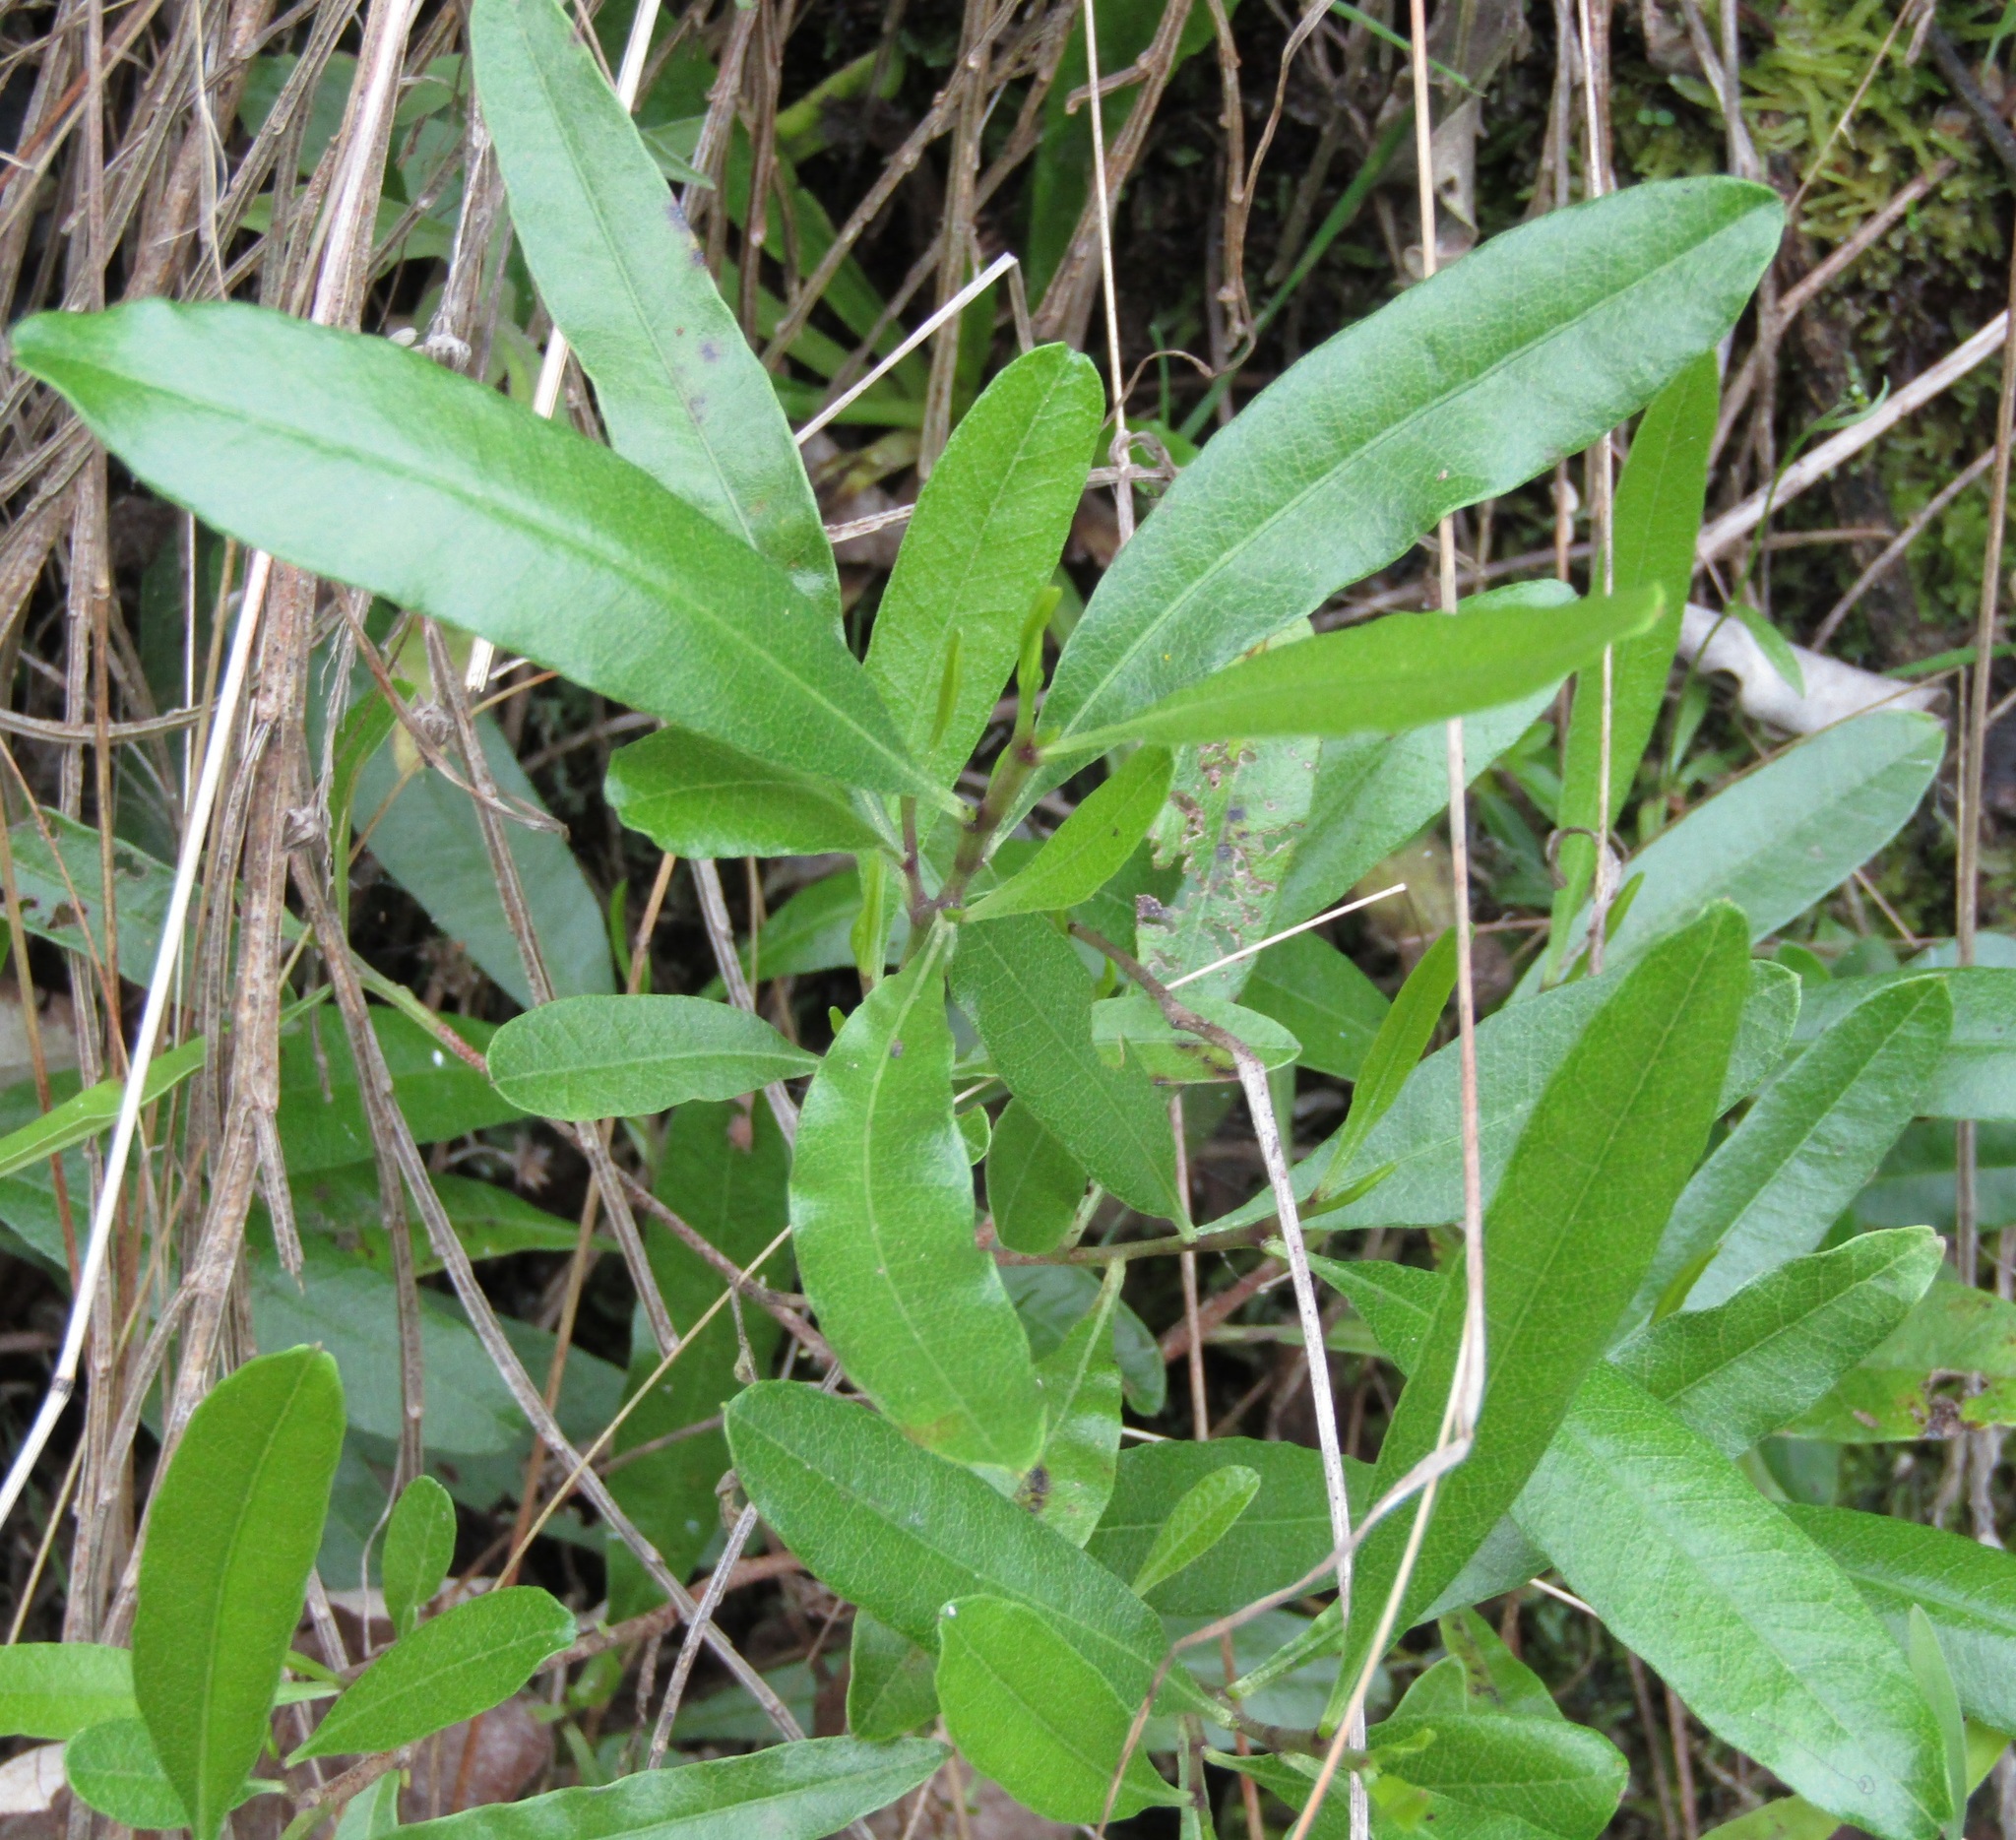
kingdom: Plantae
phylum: Tracheophyta
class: Magnoliopsida
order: Sapindales
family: Sapindaceae
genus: Dodonaea
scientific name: Dodonaea viscosa
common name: Hopbush
